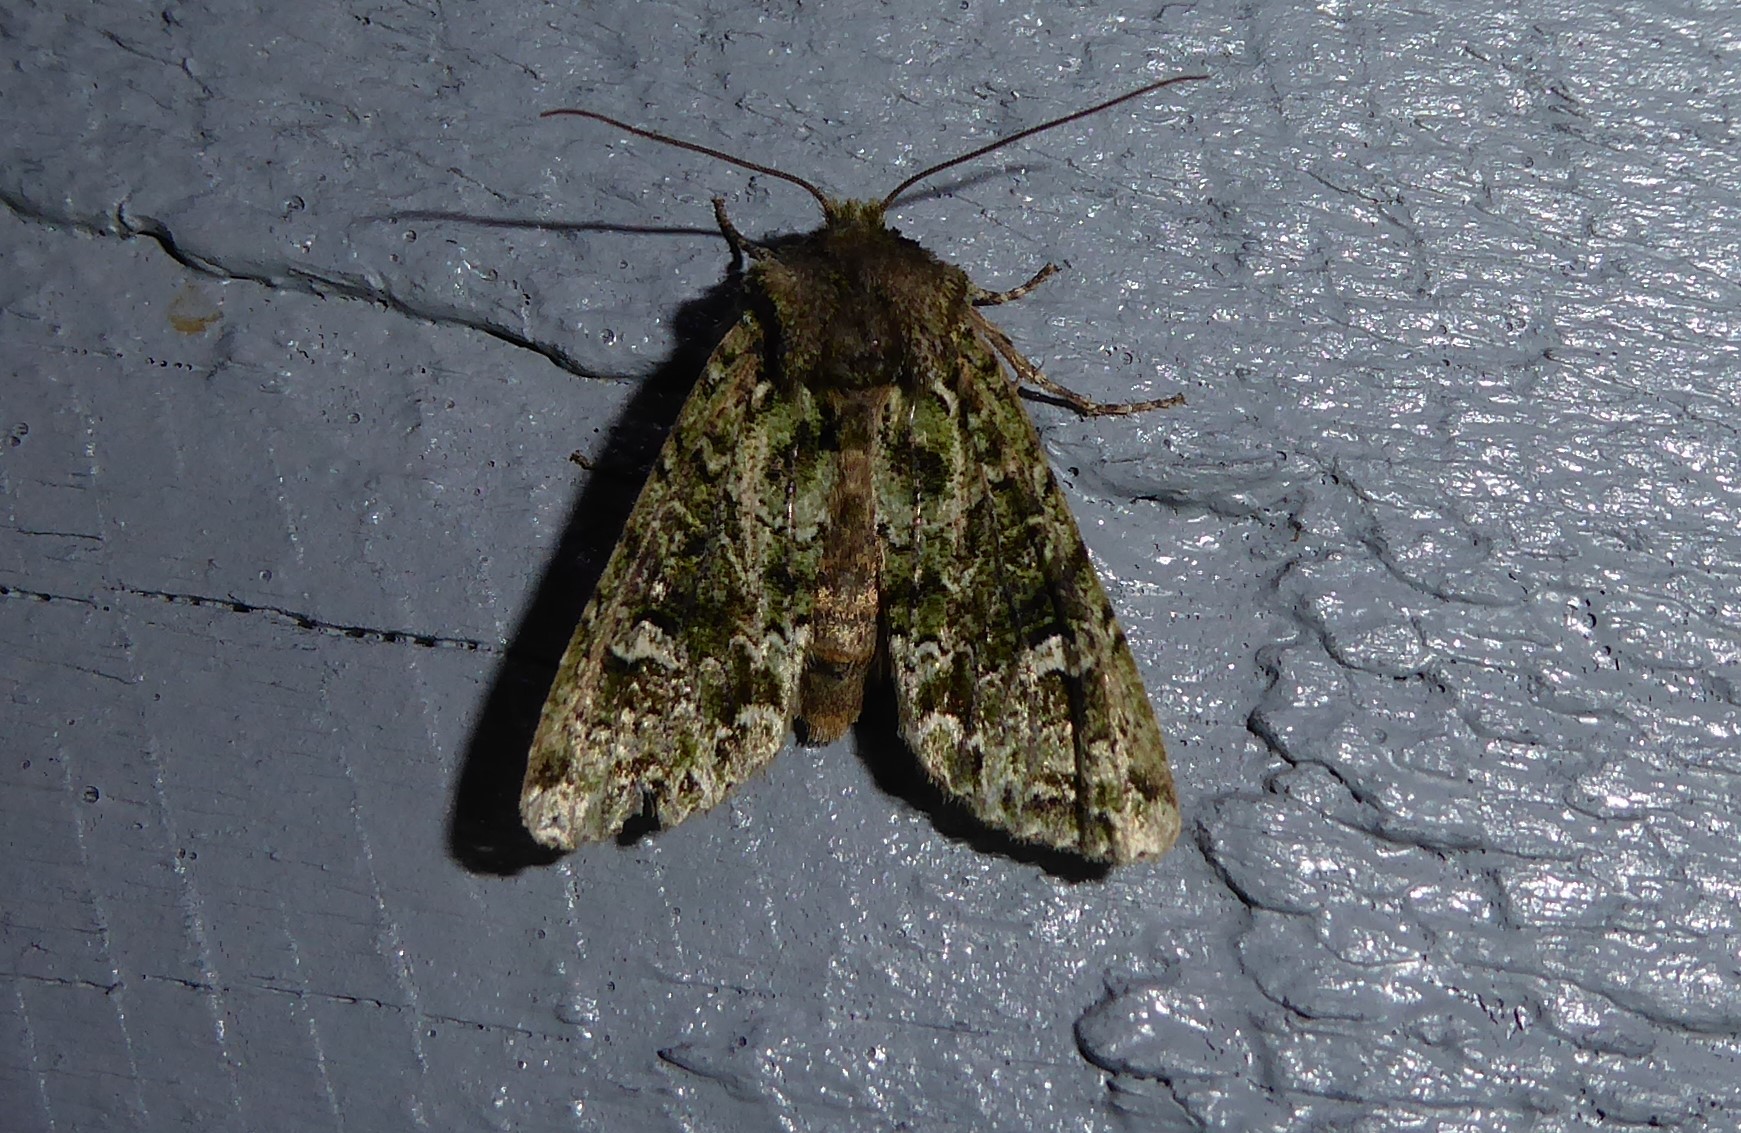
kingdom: Animalia
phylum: Arthropoda
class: Insecta
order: Lepidoptera
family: Noctuidae
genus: Ichneutica
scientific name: Ichneutica
